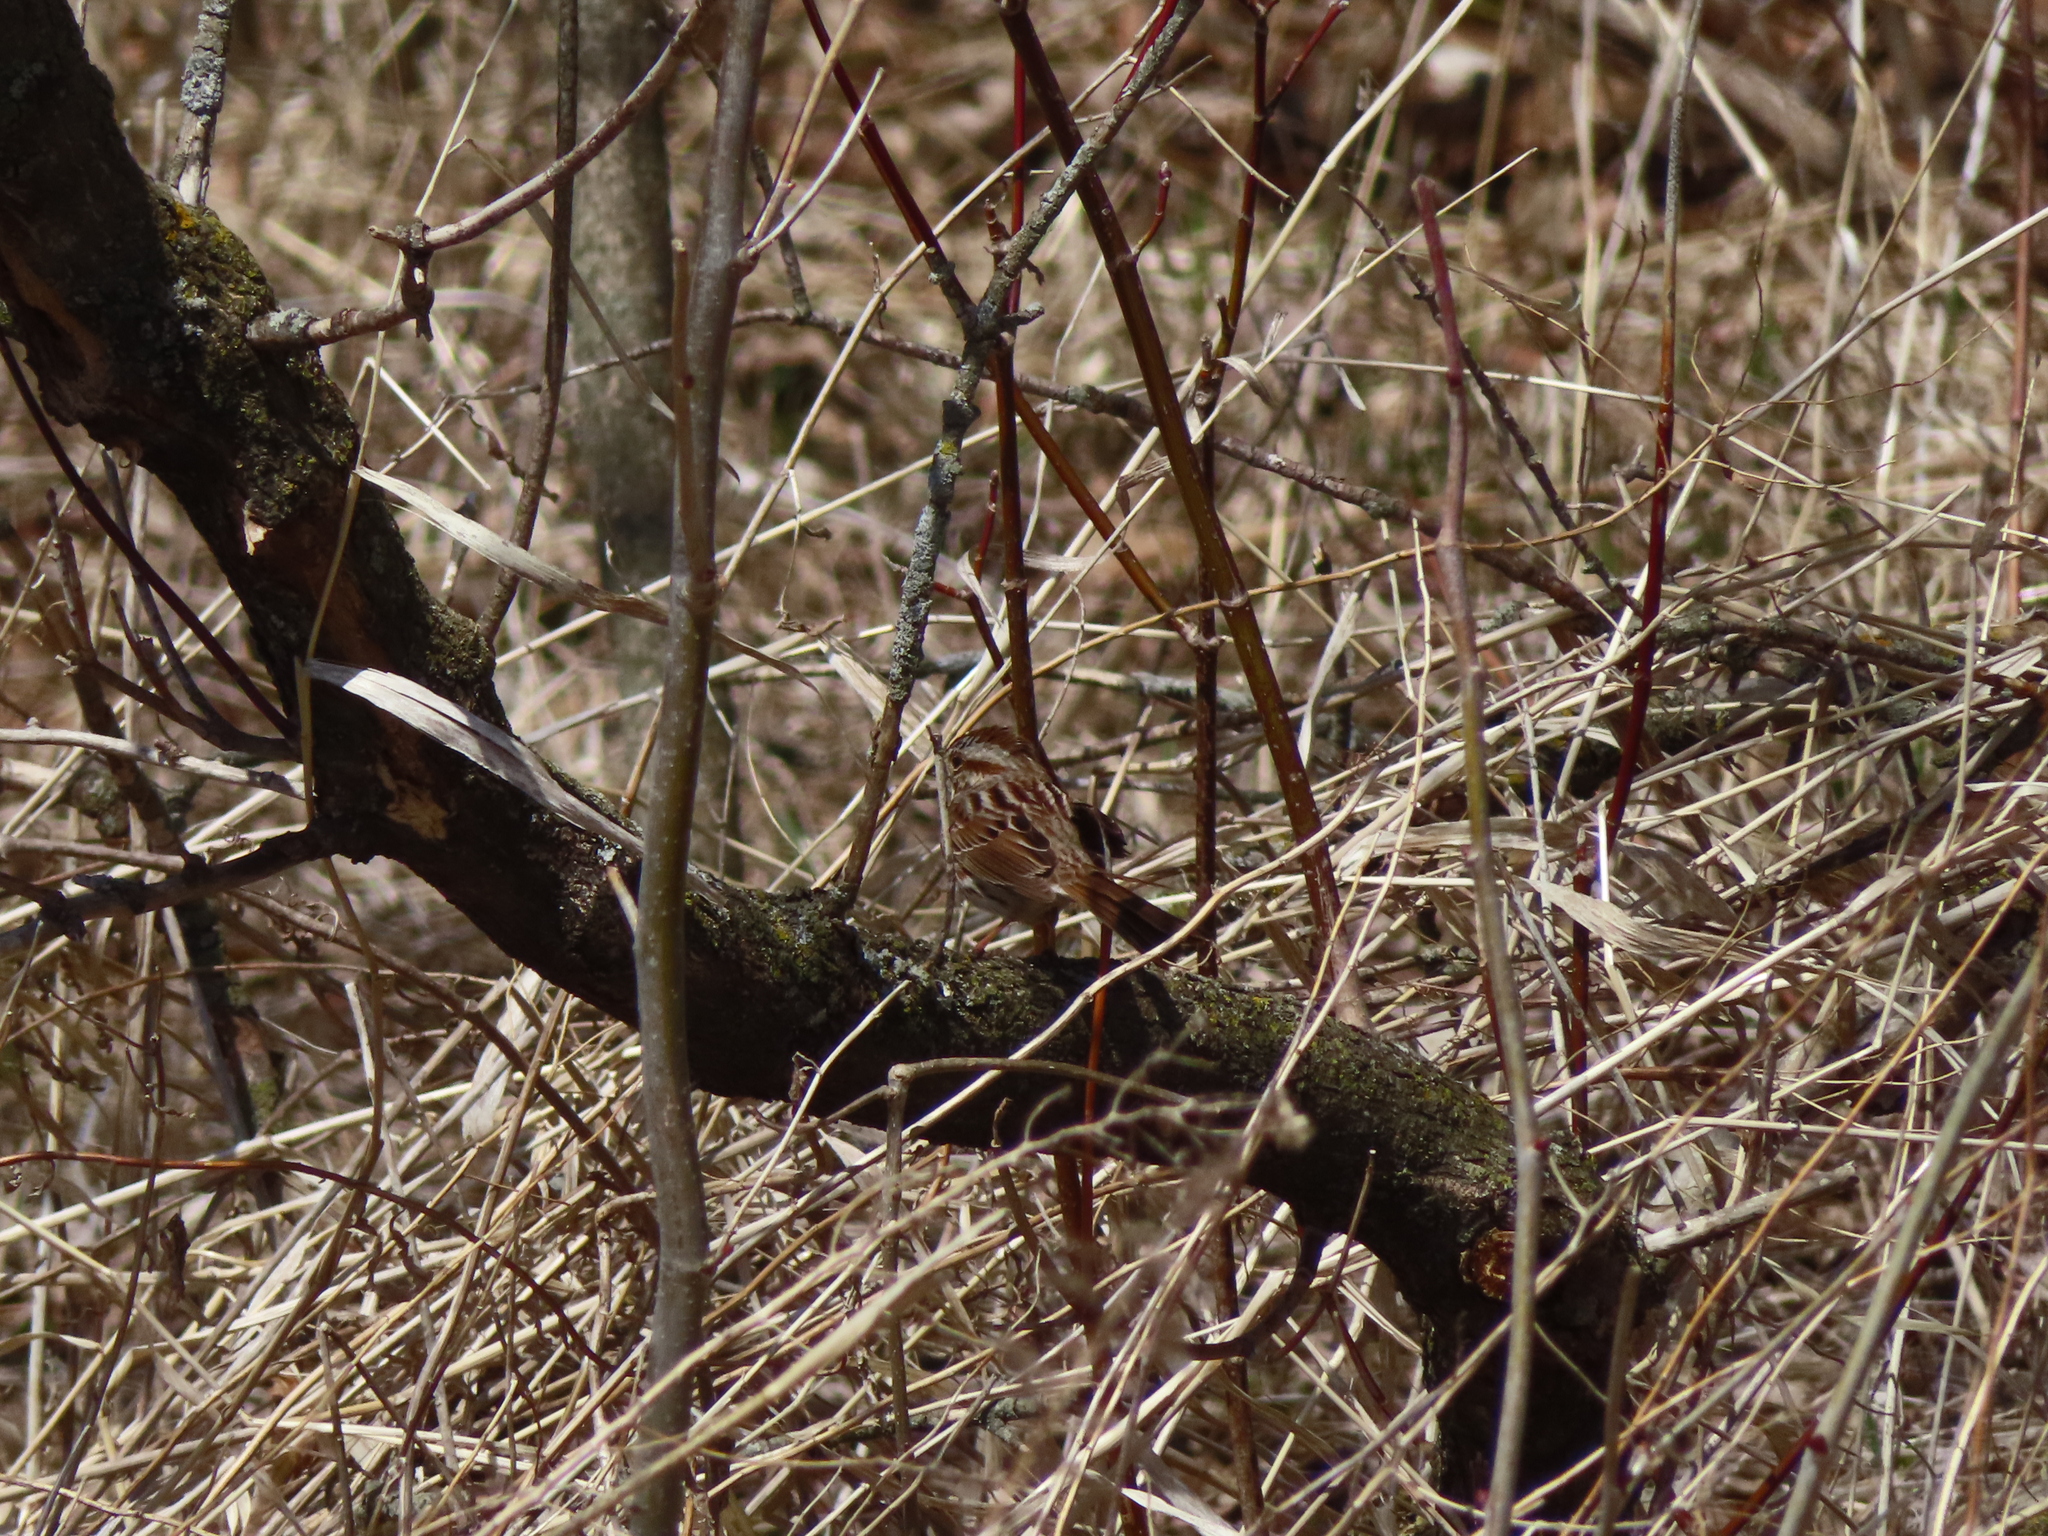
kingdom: Animalia
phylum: Chordata
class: Aves
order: Passeriformes
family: Passerellidae
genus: Melospiza
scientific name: Melospiza melodia
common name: Song sparrow
